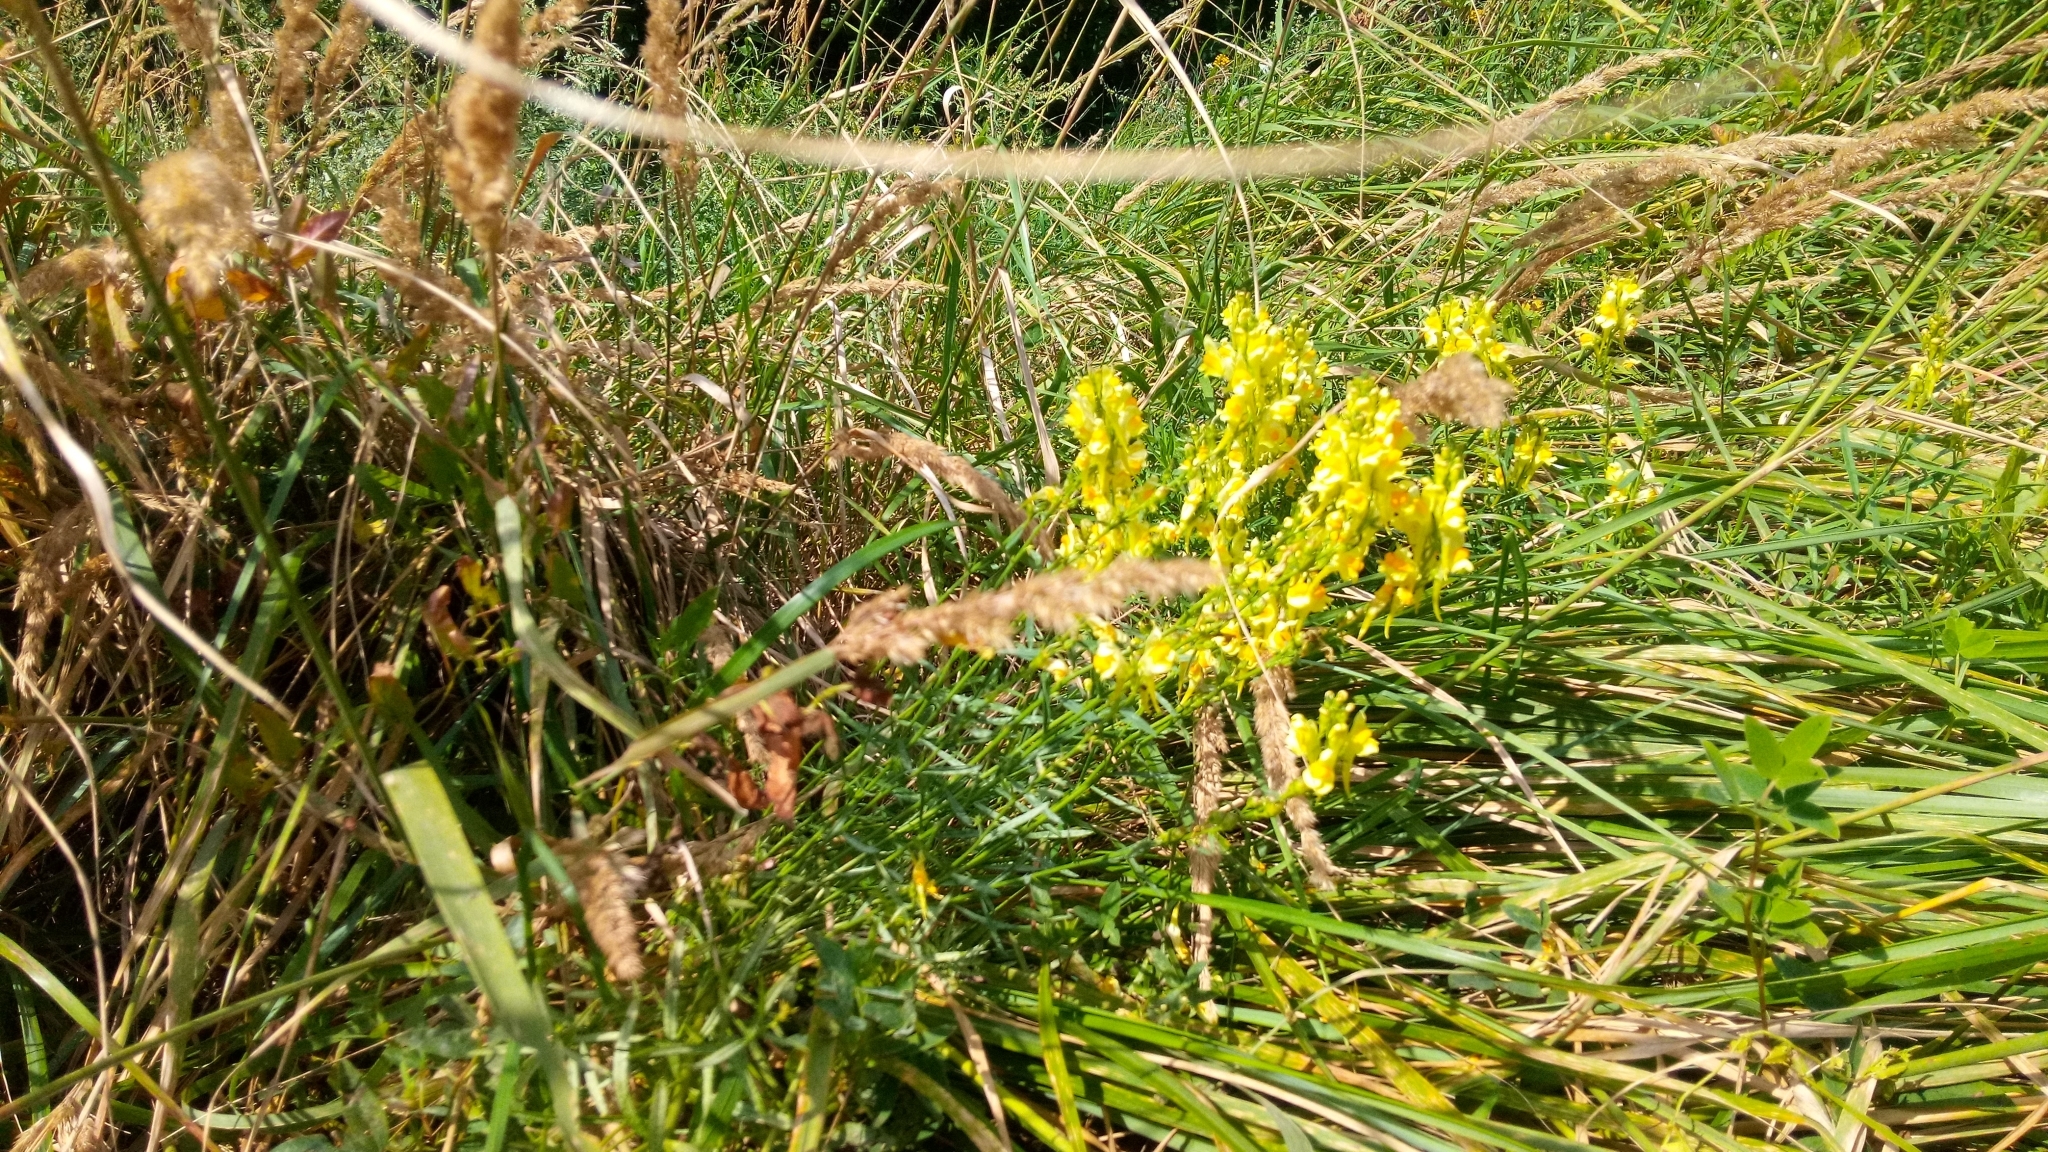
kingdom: Plantae
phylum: Tracheophyta
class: Magnoliopsida
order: Lamiales
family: Plantaginaceae
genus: Linaria
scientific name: Linaria vulgaris
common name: Butter and eggs
